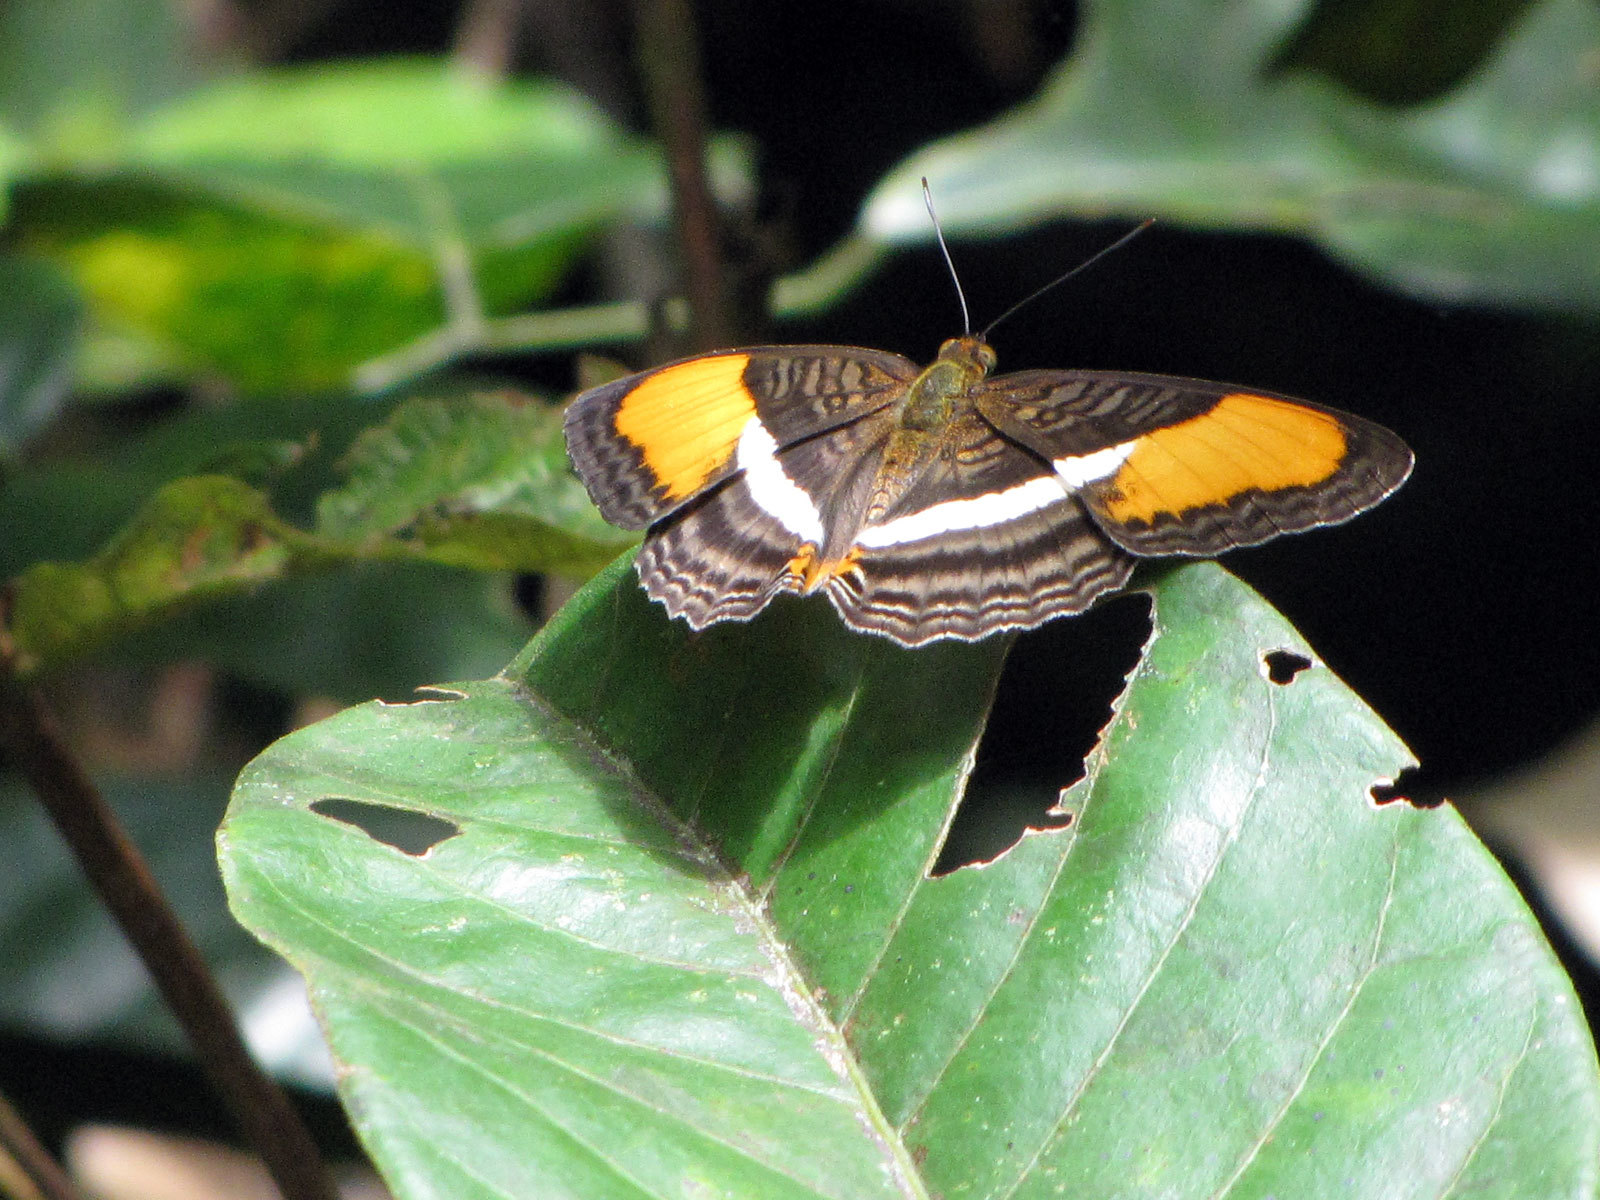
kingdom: Animalia
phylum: Arthropoda
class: Insecta
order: Lepidoptera
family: Nymphalidae
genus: Limenitis
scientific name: Limenitis cytherea
